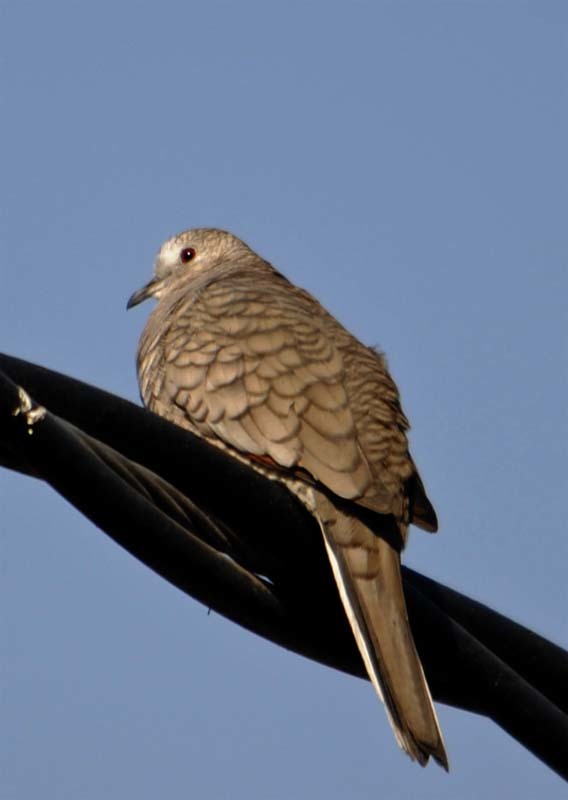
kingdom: Animalia
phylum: Chordata
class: Aves
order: Columbiformes
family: Columbidae
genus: Columbina
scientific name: Columbina inca
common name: Inca dove
